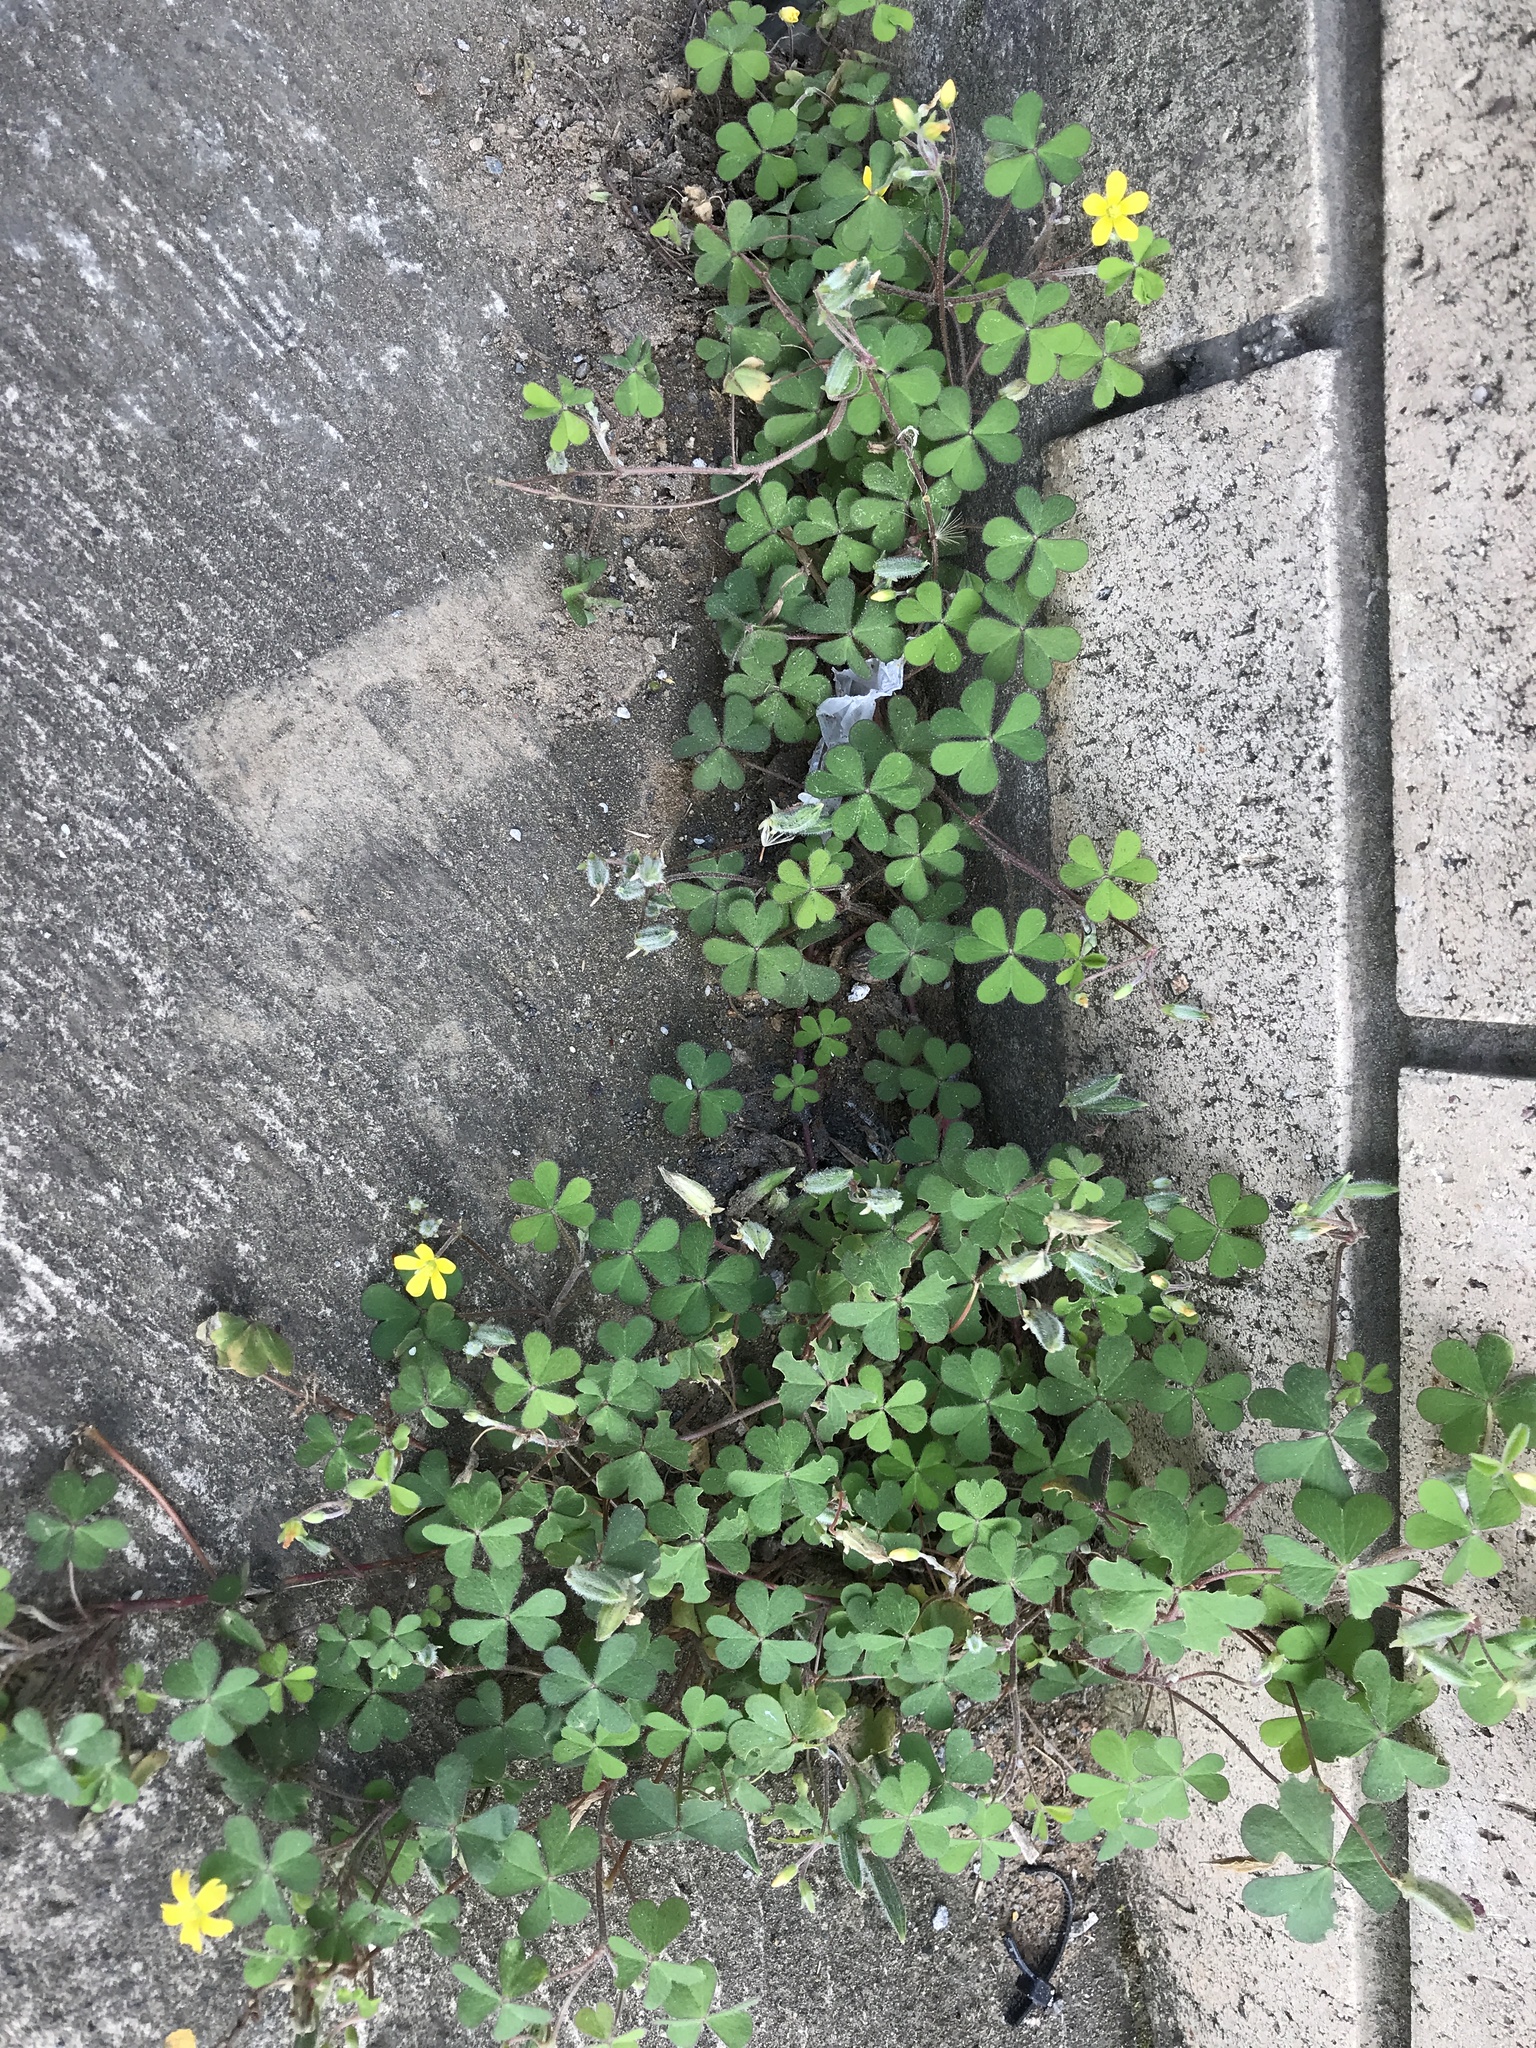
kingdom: Plantae
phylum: Tracheophyta
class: Magnoliopsida
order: Oxalidales
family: Oxalidaceae
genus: Oxalis
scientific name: Oxalis corniculata
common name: Procumbent yellow-sorrel
